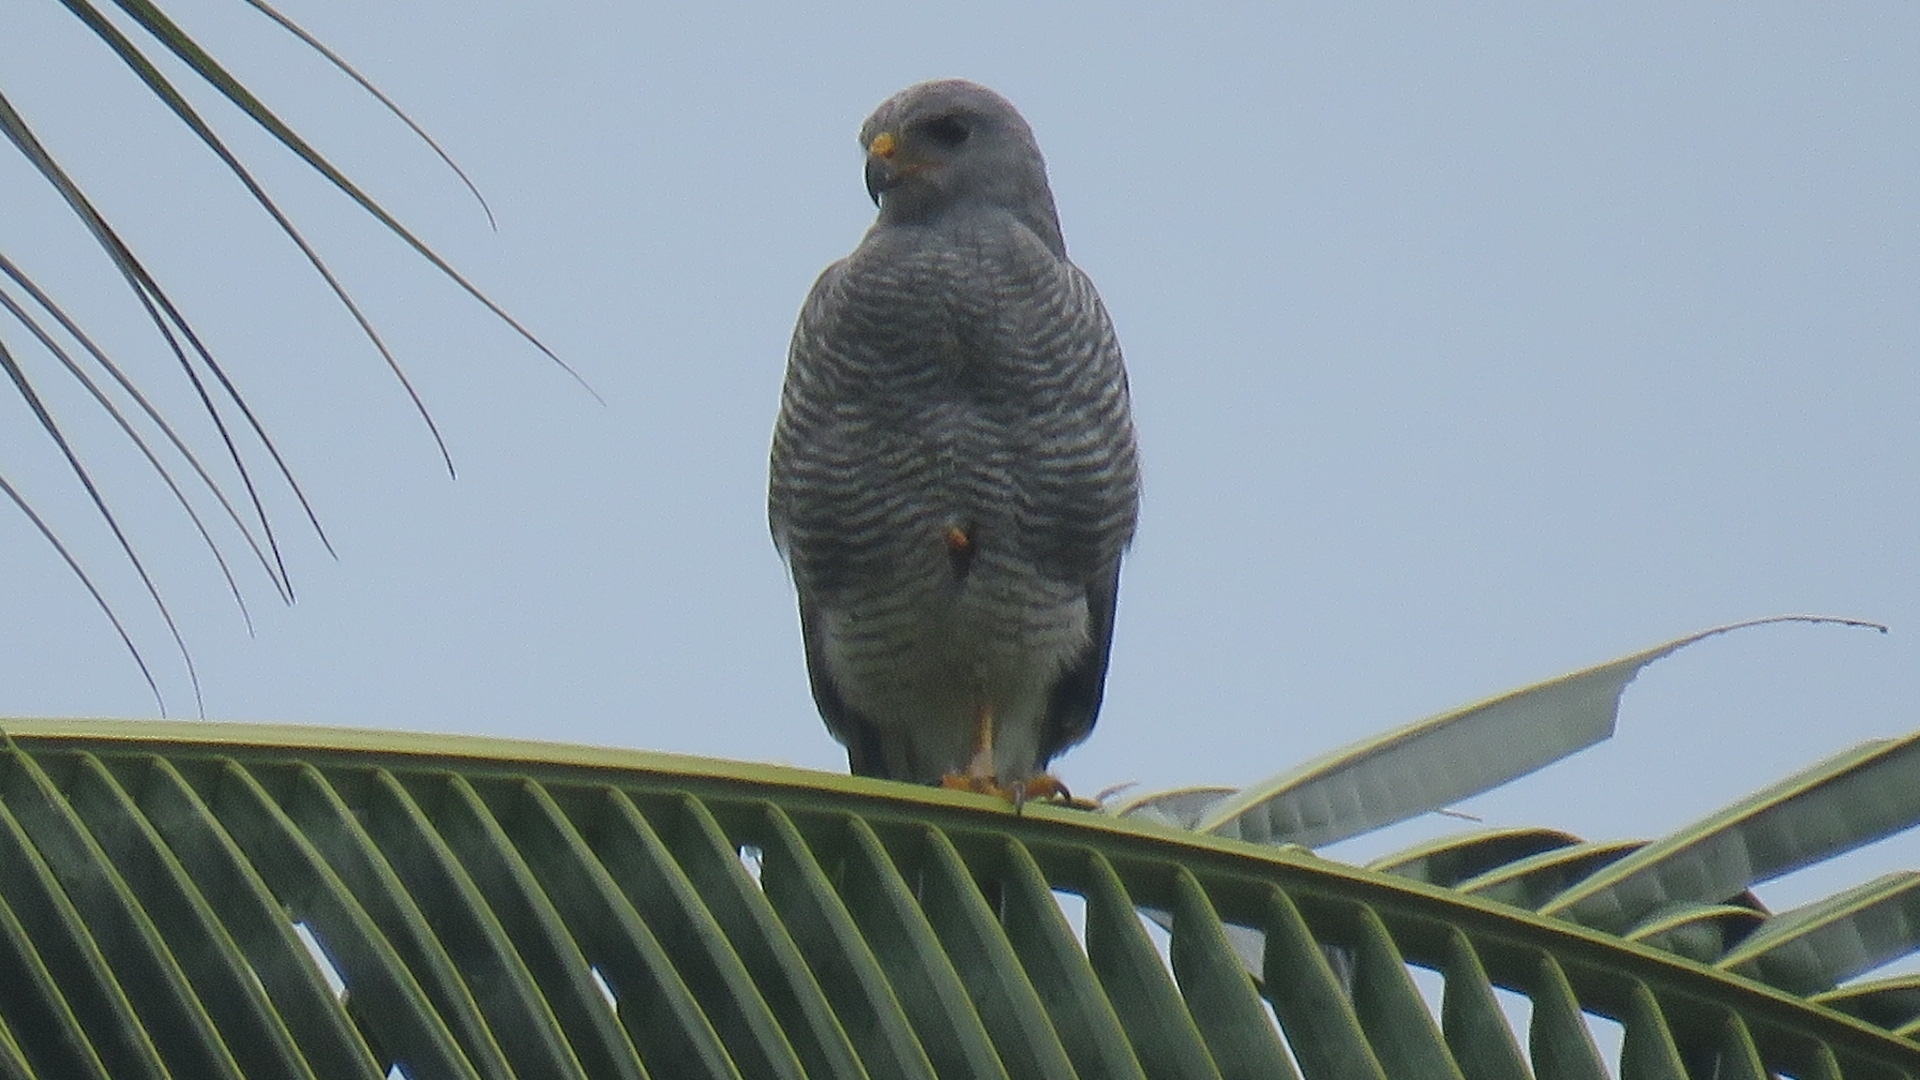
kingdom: Animalia
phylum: Chordata
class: Aves
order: Accipitriformes
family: Accipitridae
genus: Buteo
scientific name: Buteo nitidus
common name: Grey-lined hawk
